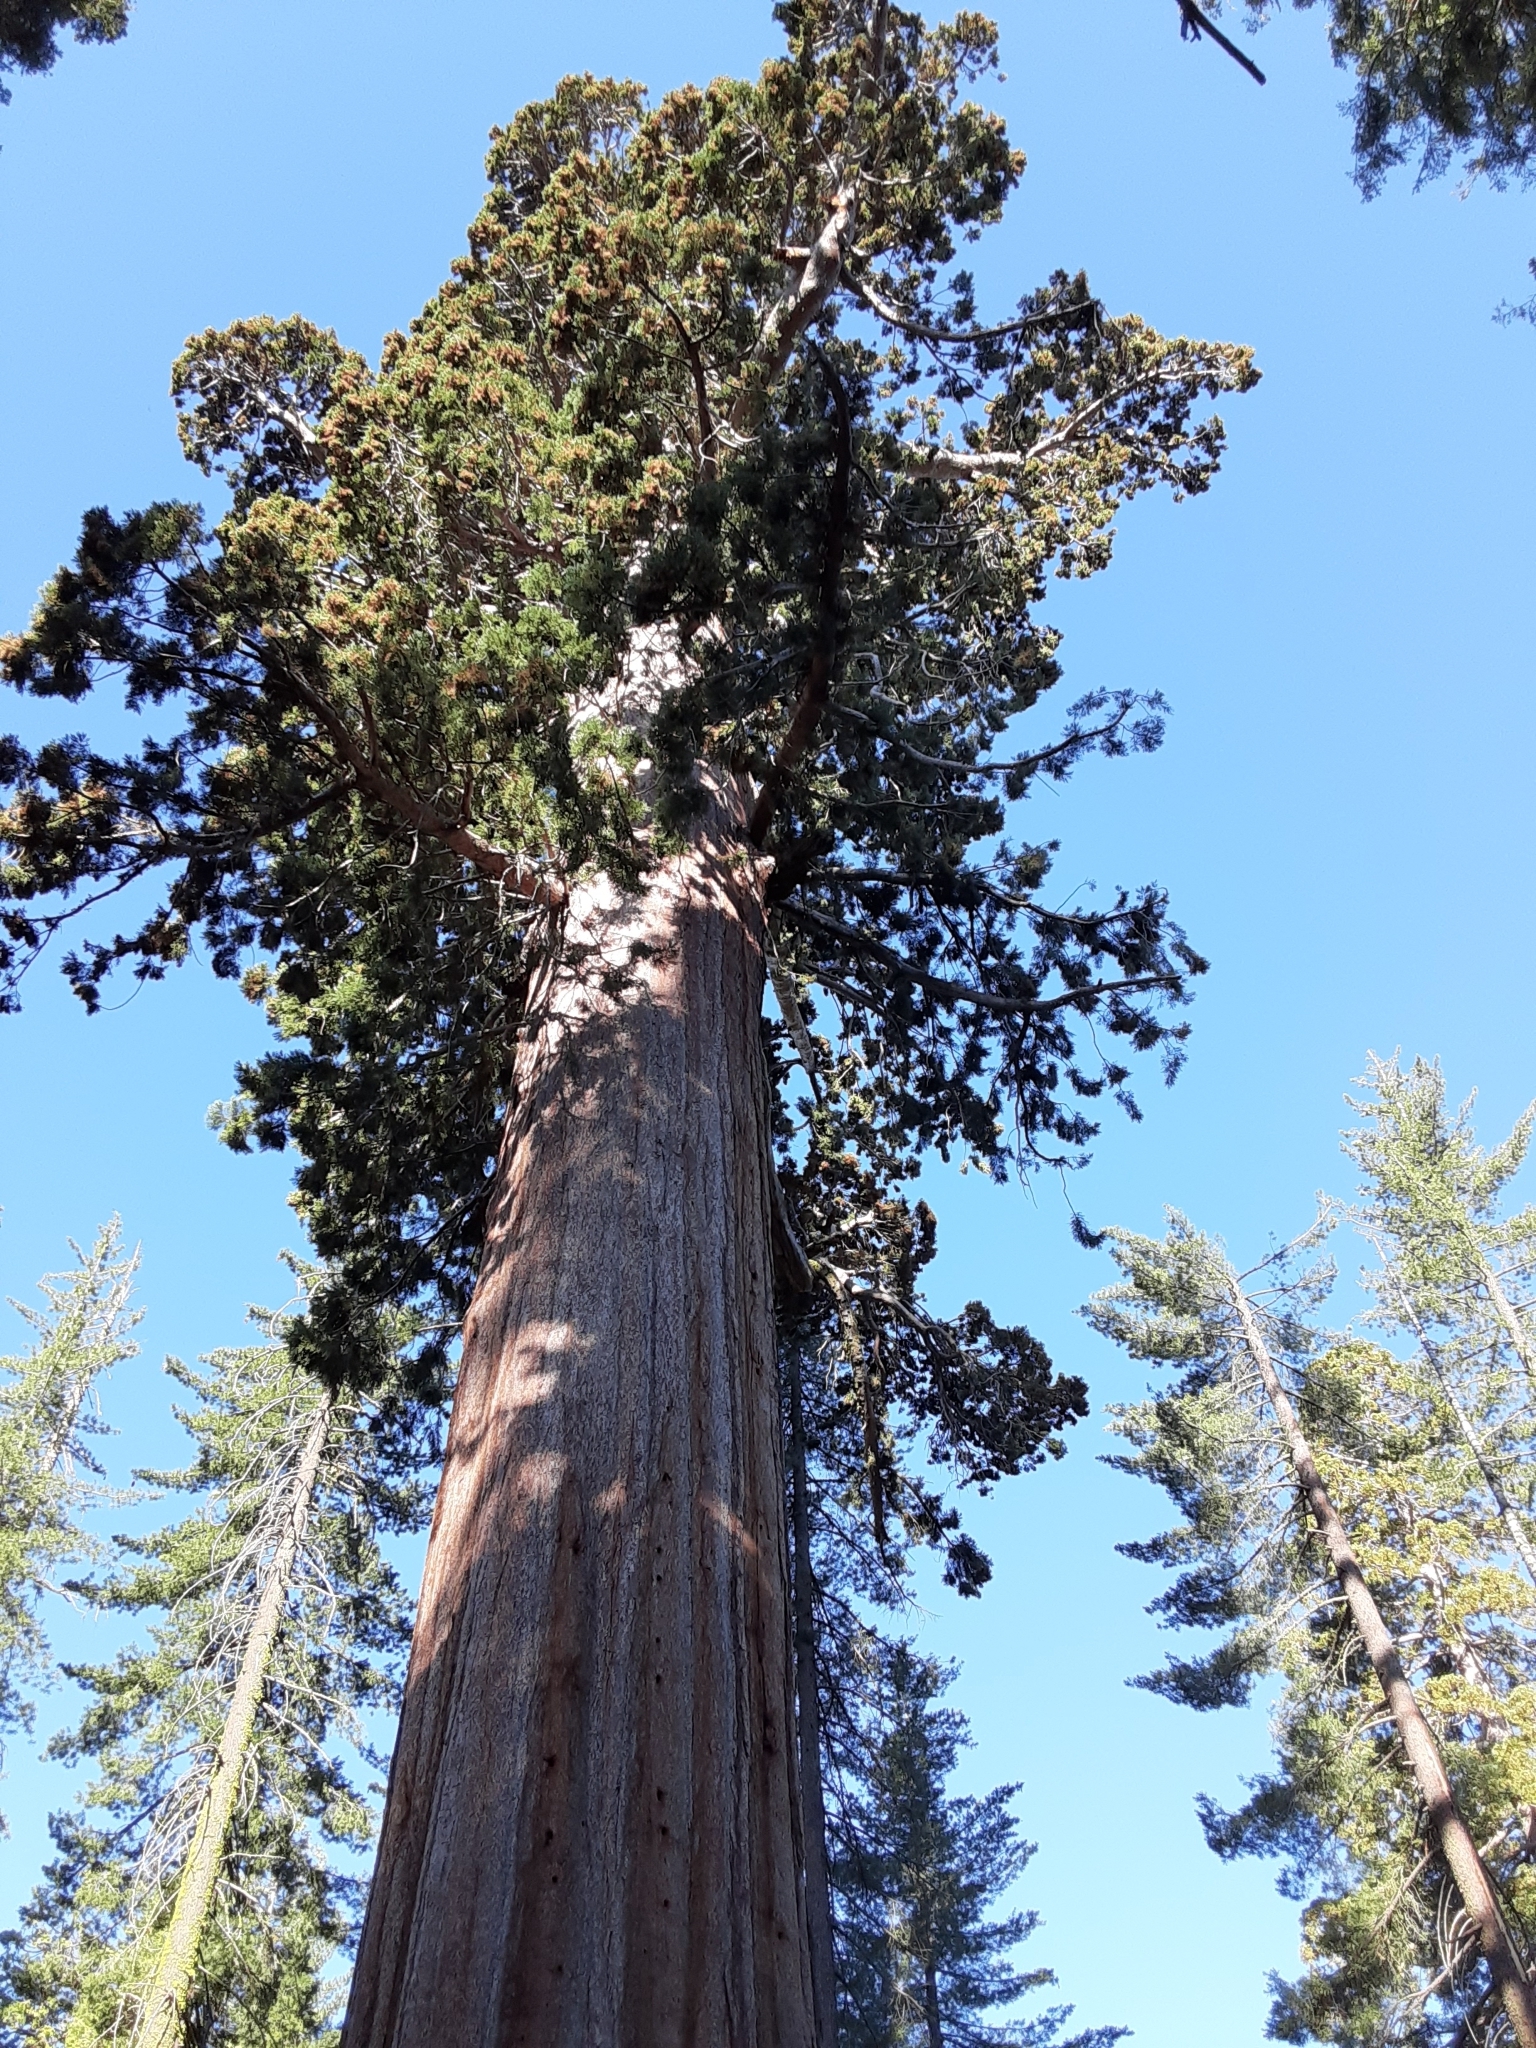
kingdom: Plantae
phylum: Tracheophyta
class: Pinopsida
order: Pinales
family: Cupressaceae
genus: Sequoiadendron
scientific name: Sequoiadendron giganteum
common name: Wellingtonia
